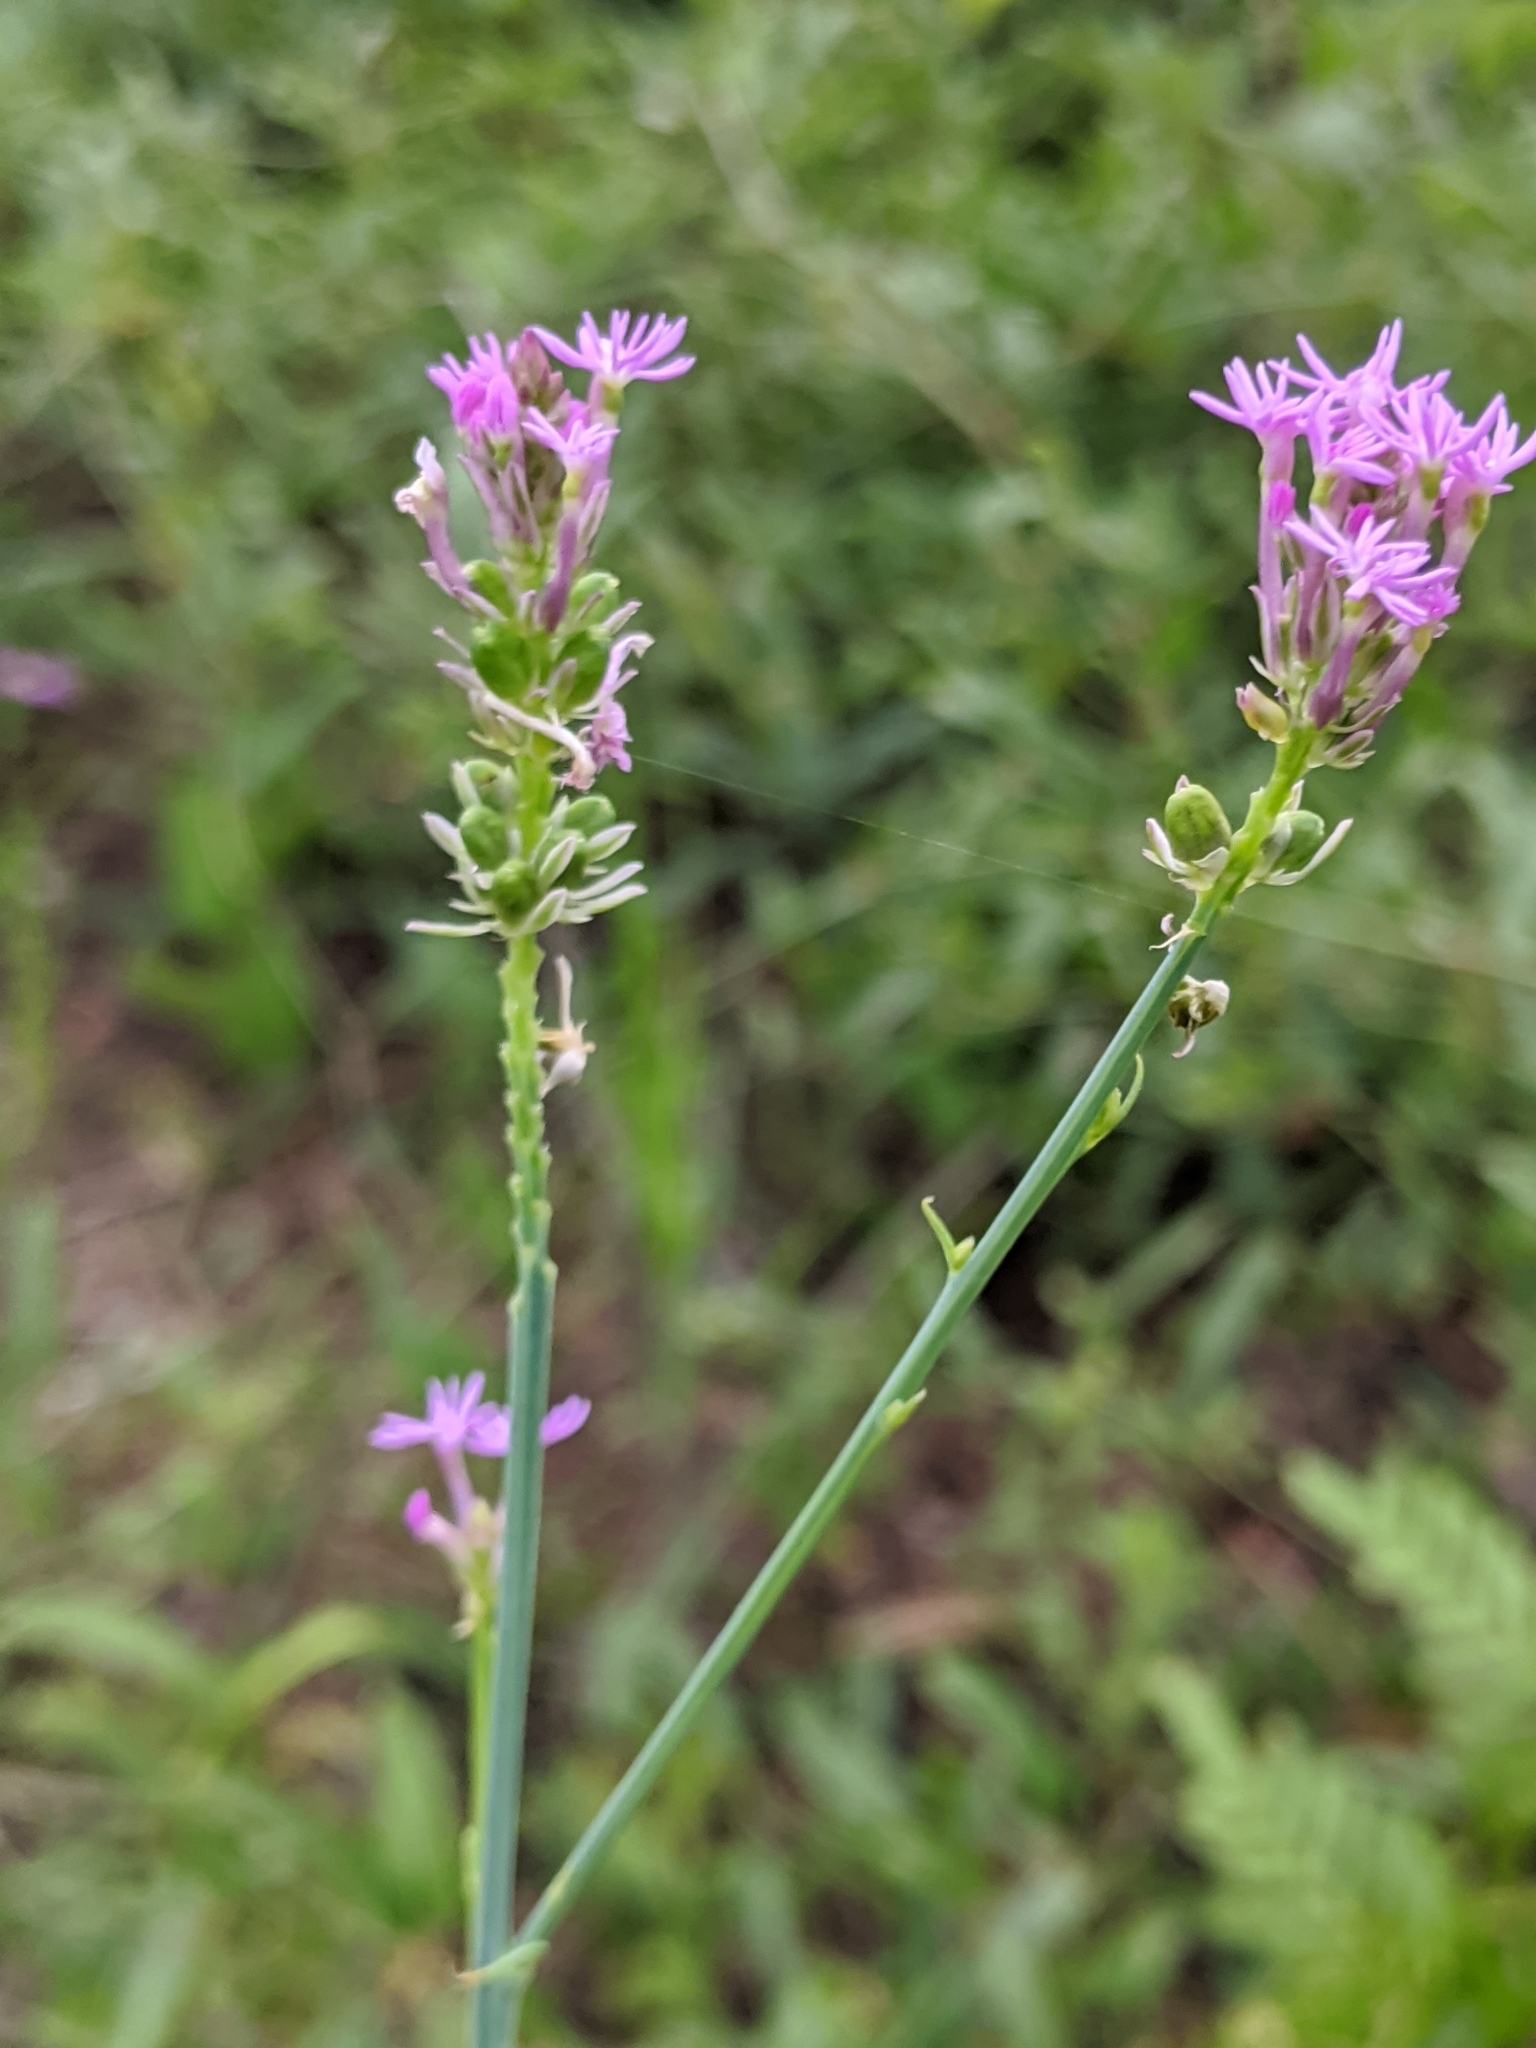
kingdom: Plantae
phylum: Tracheophyta
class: Magnoliopsida
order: Fabales
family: Polygalaceae
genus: Polygala
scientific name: Polygala incarnata
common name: Pink milkwort
